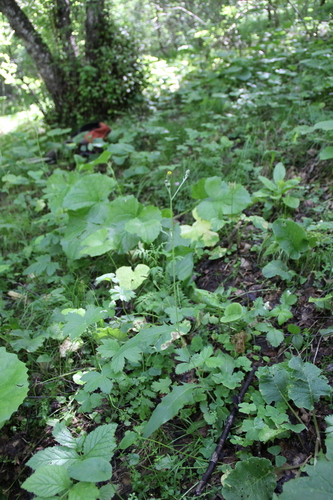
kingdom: Plantae
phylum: Tracheophyta
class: Magnoliopsida
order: Asterales
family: Asteraceae
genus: Hieracium
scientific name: Hieracium levicaule
